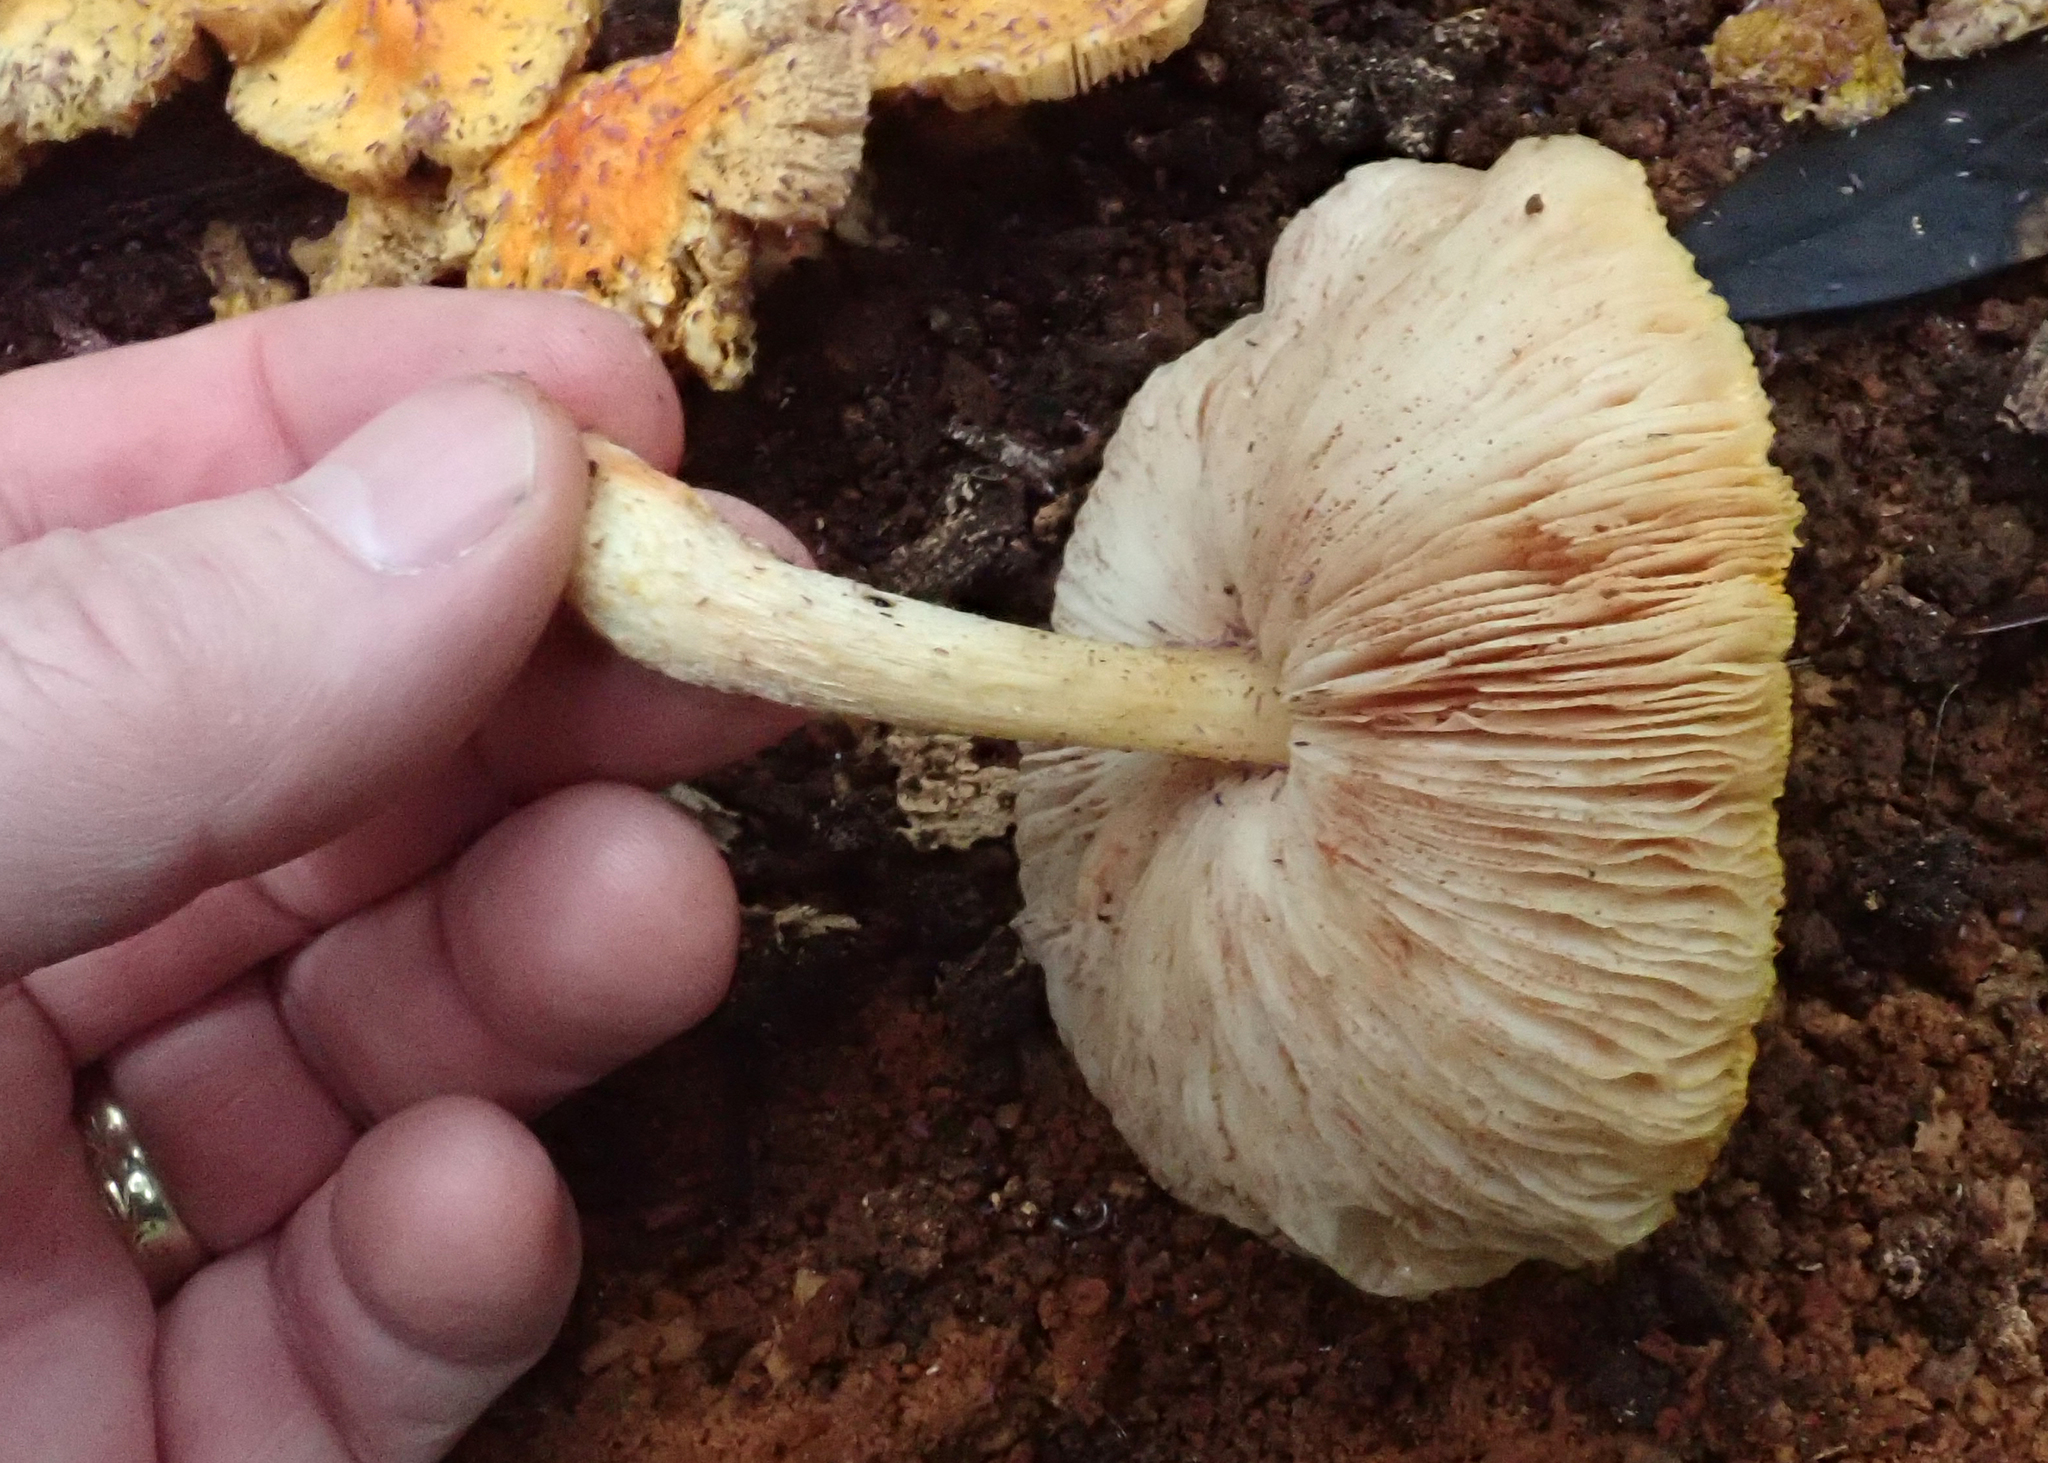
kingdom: Fungi
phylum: Basidiomycota
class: Agaricomycetes
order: Agaricales
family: Pluteaceae
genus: Pluteus
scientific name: Pluteus aurantiorugosus
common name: Flame shield
